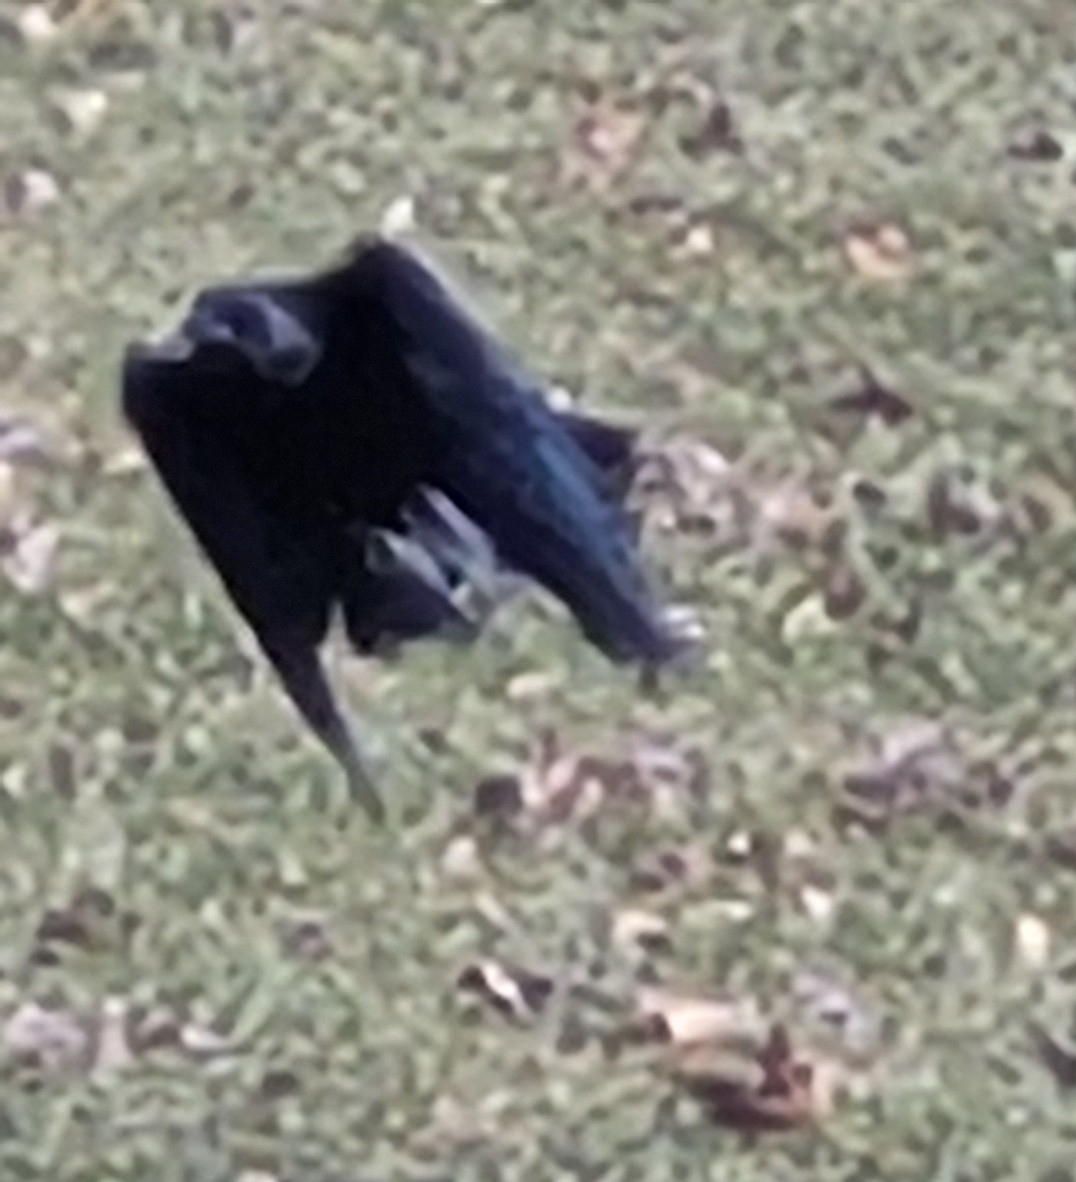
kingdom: Animalia
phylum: Chordata
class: Aves
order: Passeriformes
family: Corvidae
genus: Corvus
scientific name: Corvus brachyrhynchos
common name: American crow
